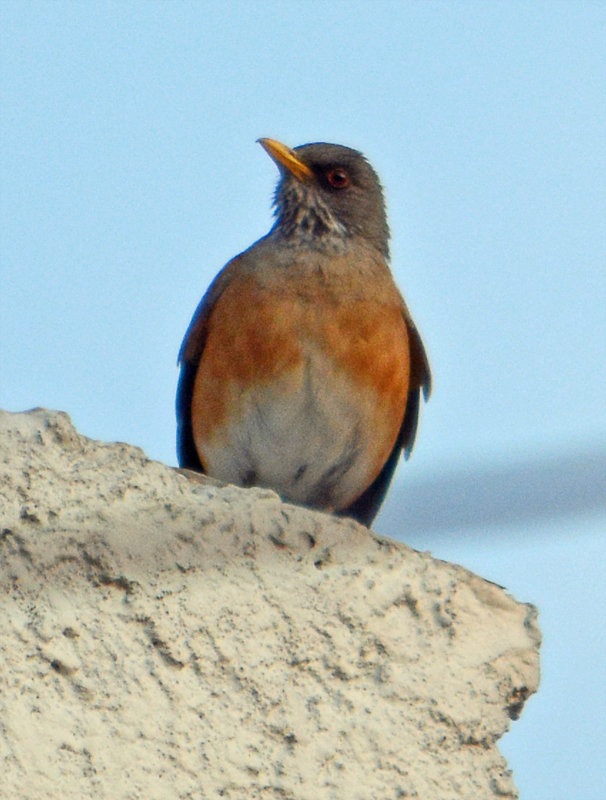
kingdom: Animalia
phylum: Chordata
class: Aves
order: Passeriformes
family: Turdidae
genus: Turdus
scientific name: Turdus rufopalliatus
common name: Rufous-backed robin
